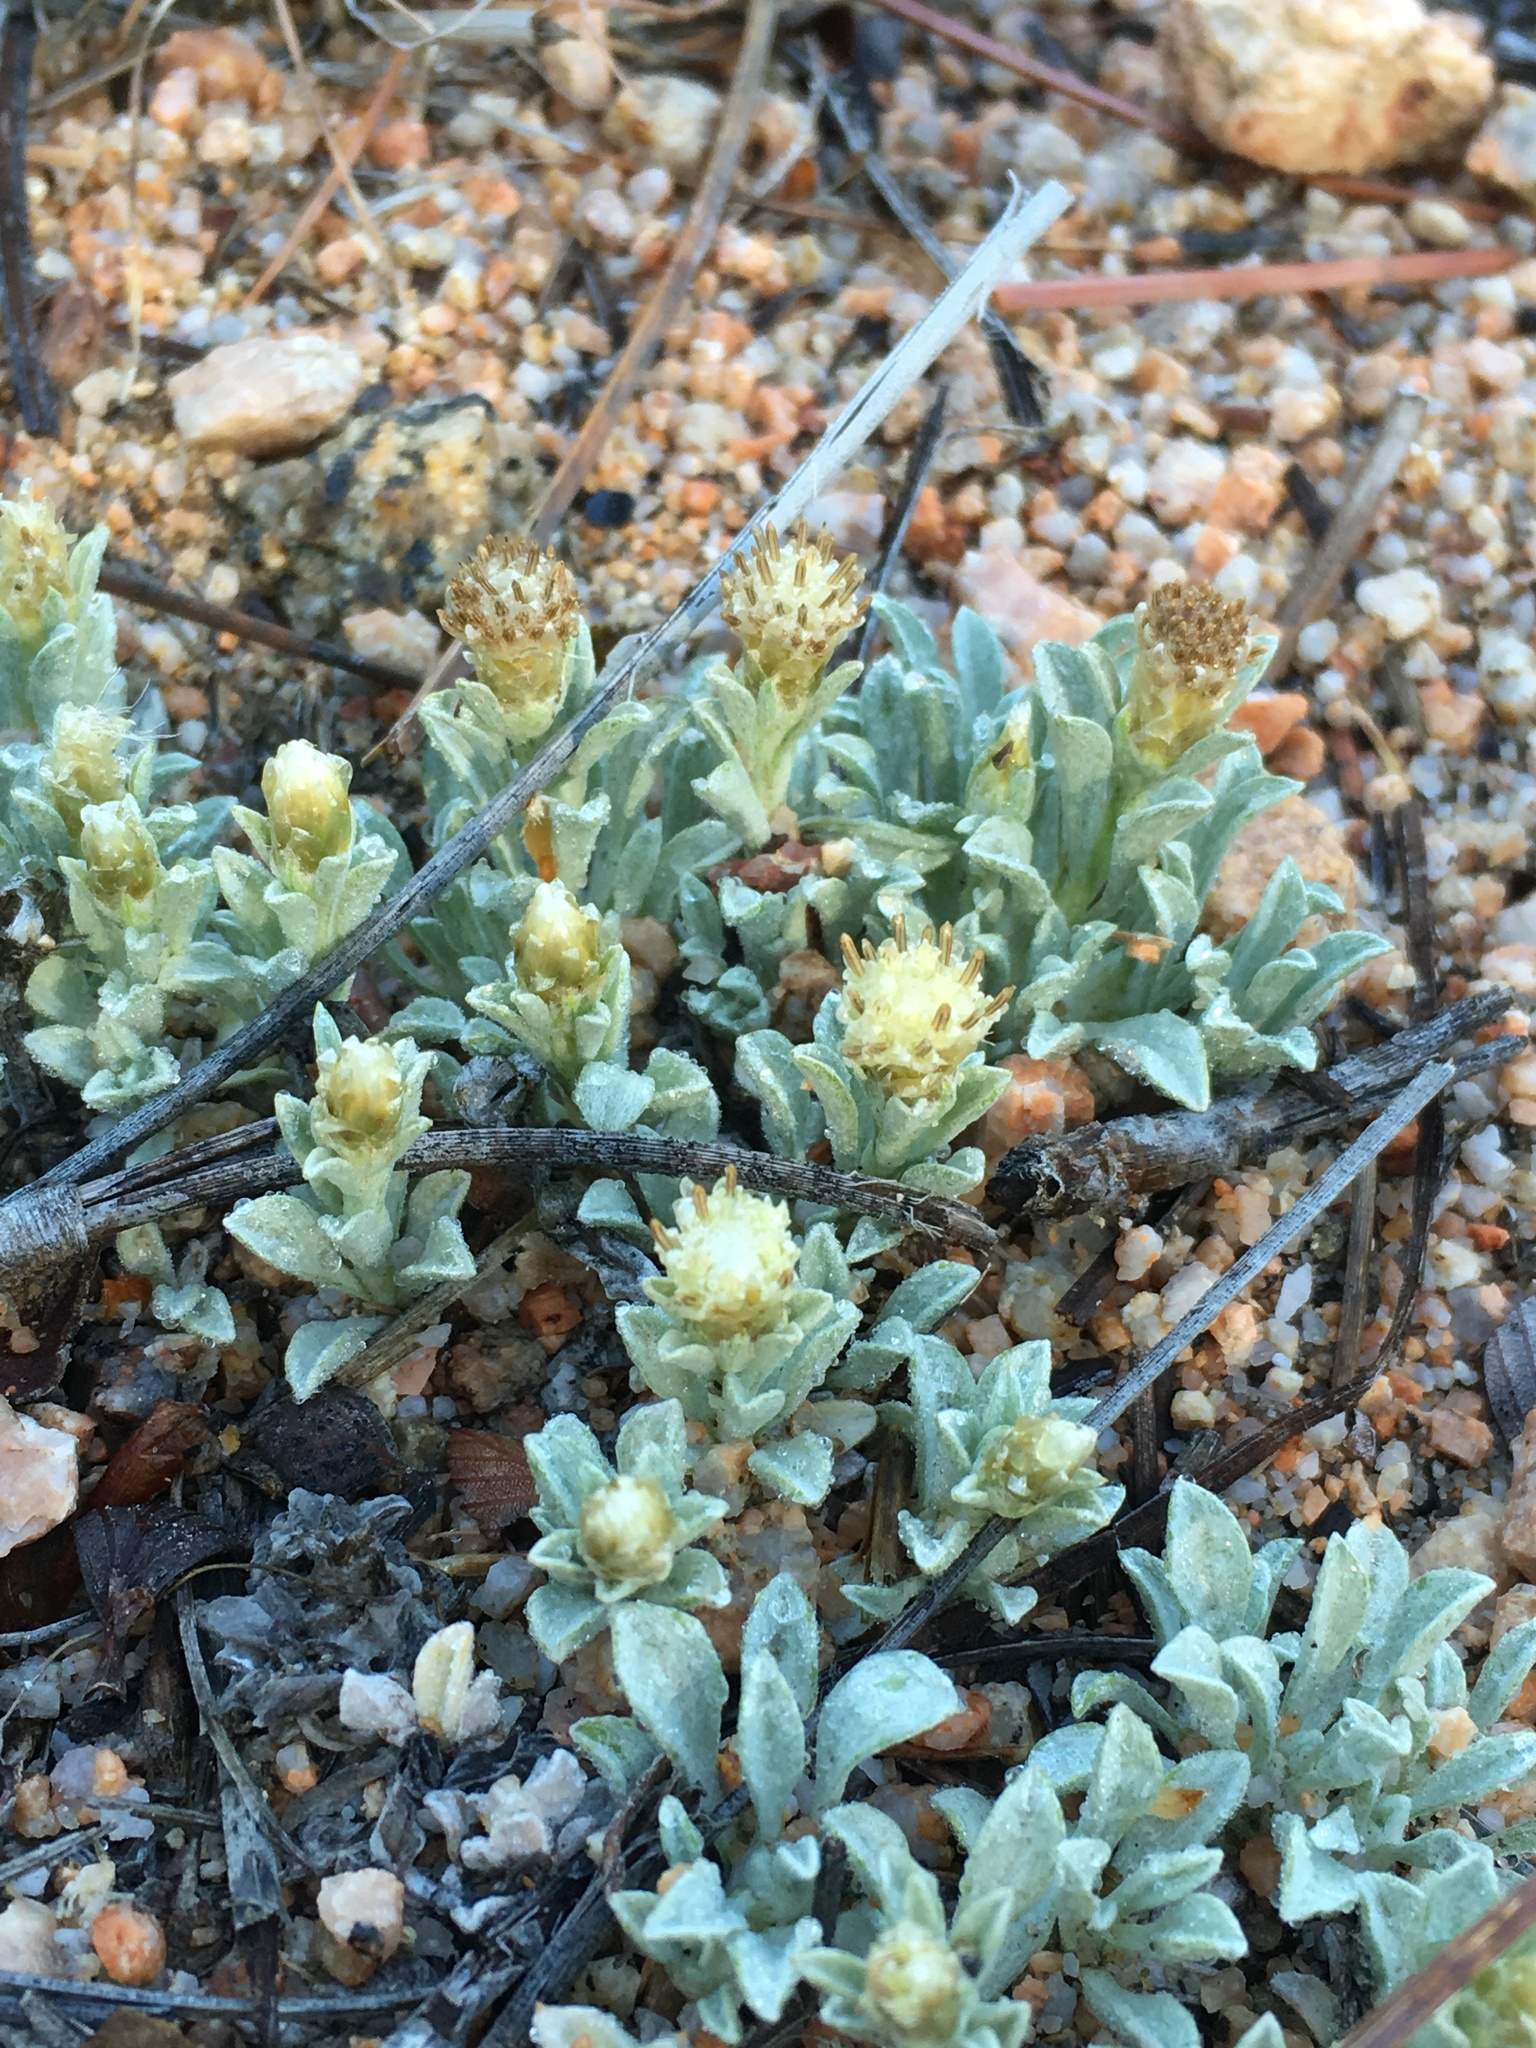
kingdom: Plantae
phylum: Tracheophyta
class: Magnoliopsida
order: Asterales
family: Asteraceae
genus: Antennaria
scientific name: Antennaria dimorpha
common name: Cushion pussytoes
